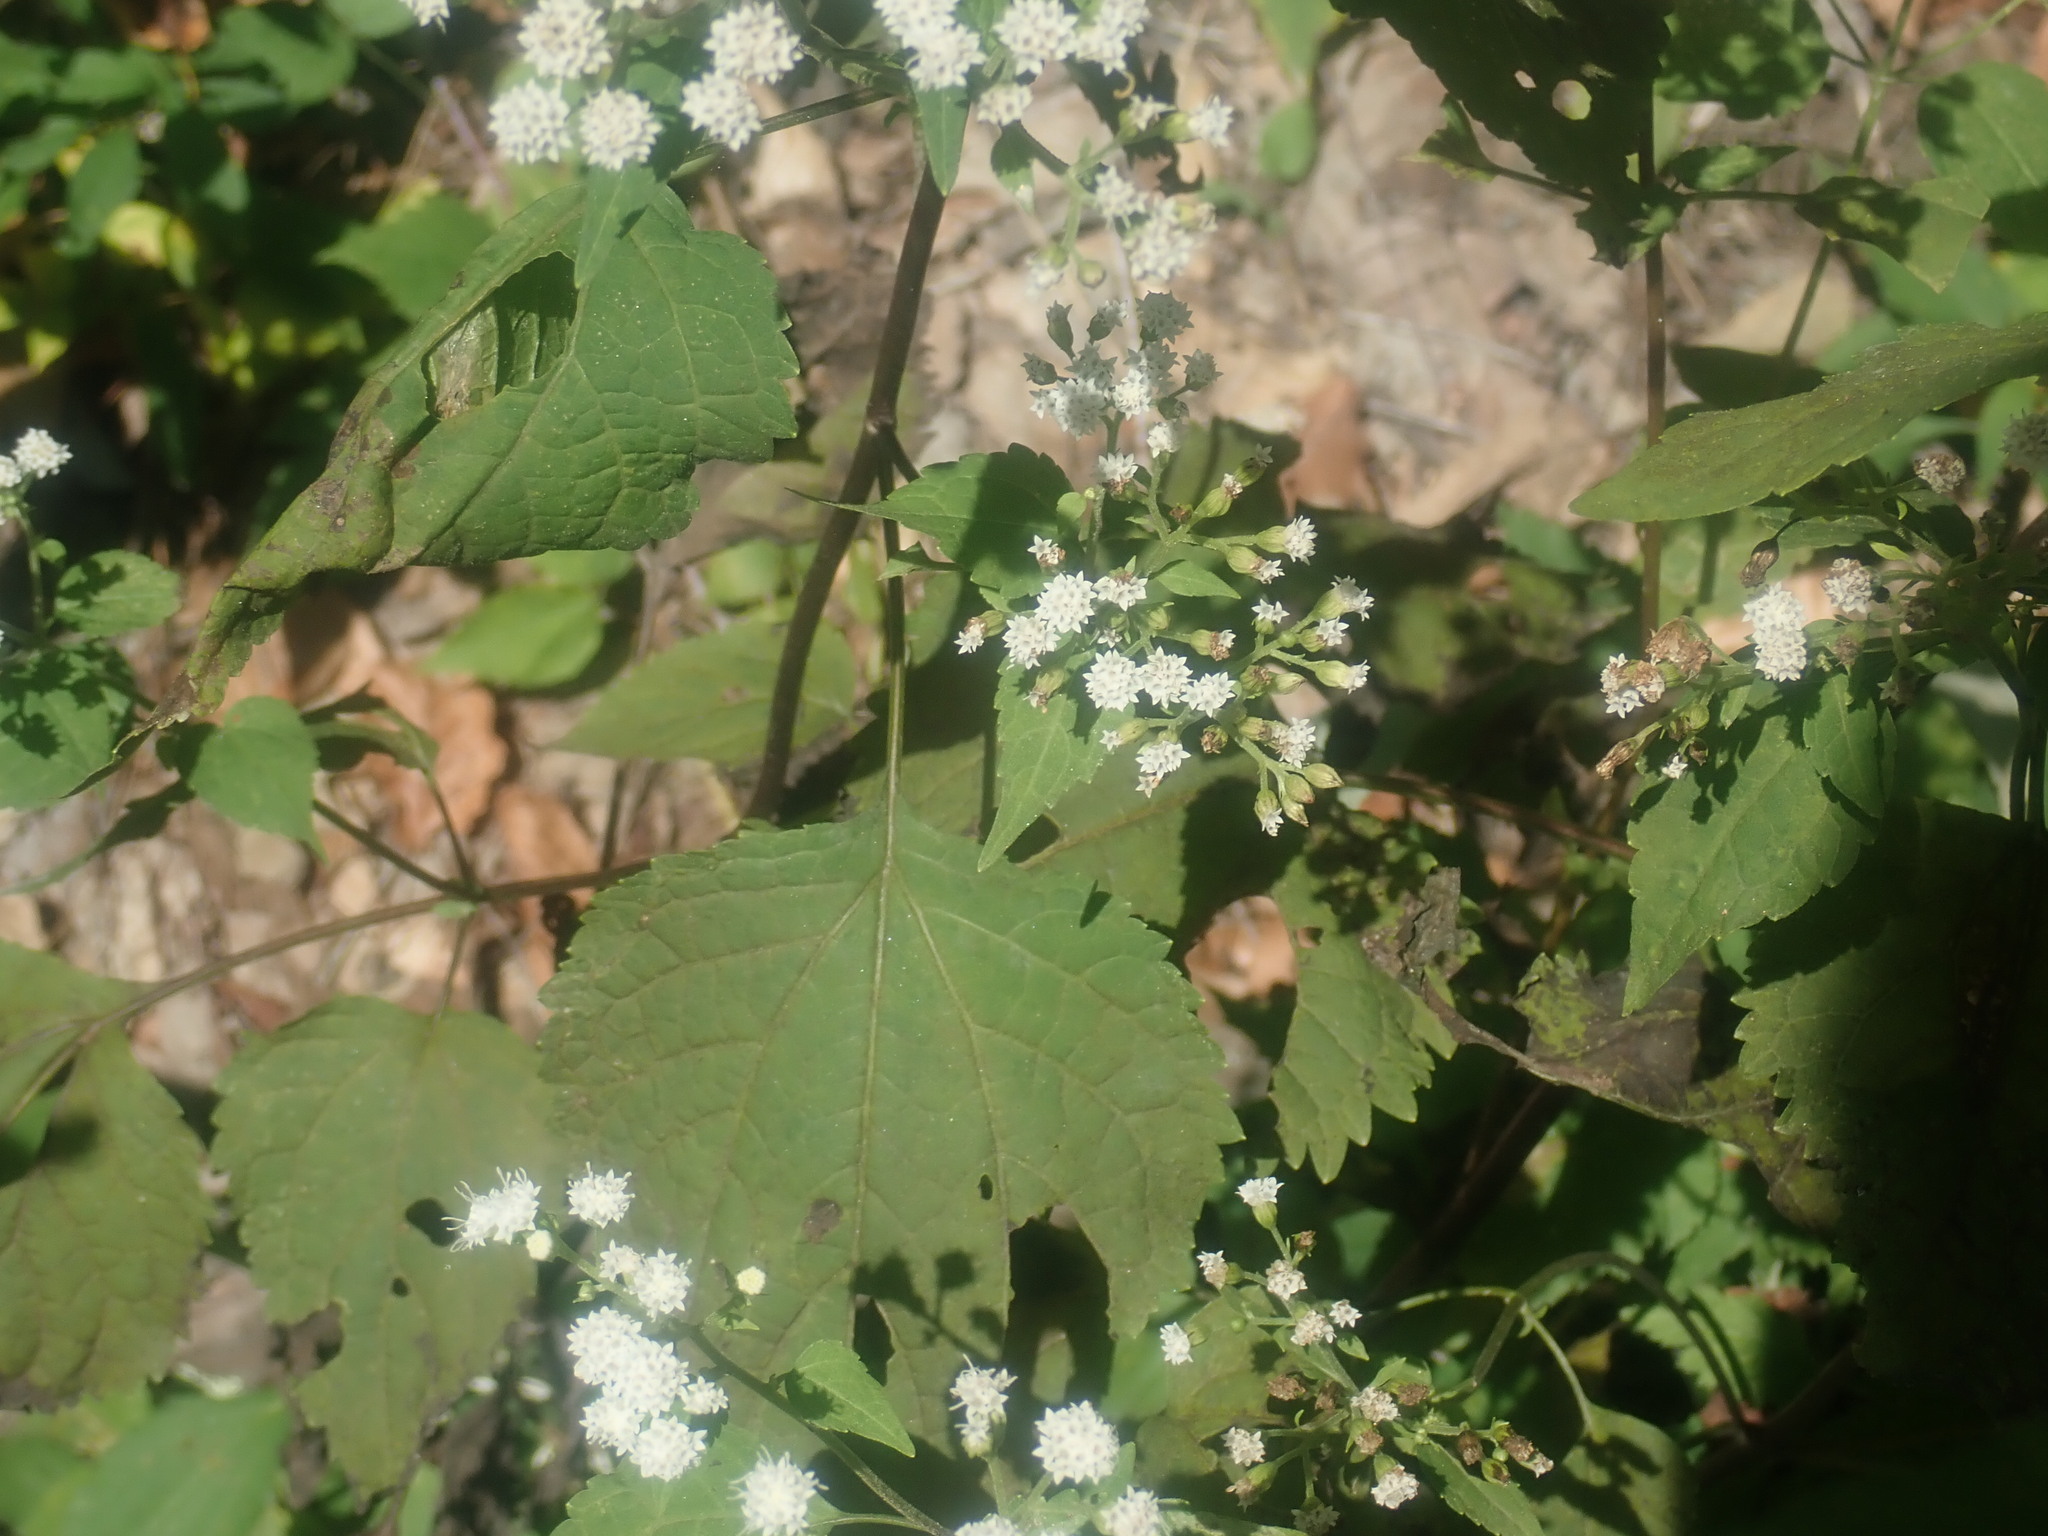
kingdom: Plantae
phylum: Tracheophyta
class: Magnoliopsida
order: Asterales
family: Asteraceae
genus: Ageratina
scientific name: Ageratina altissima
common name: White snakeroot
